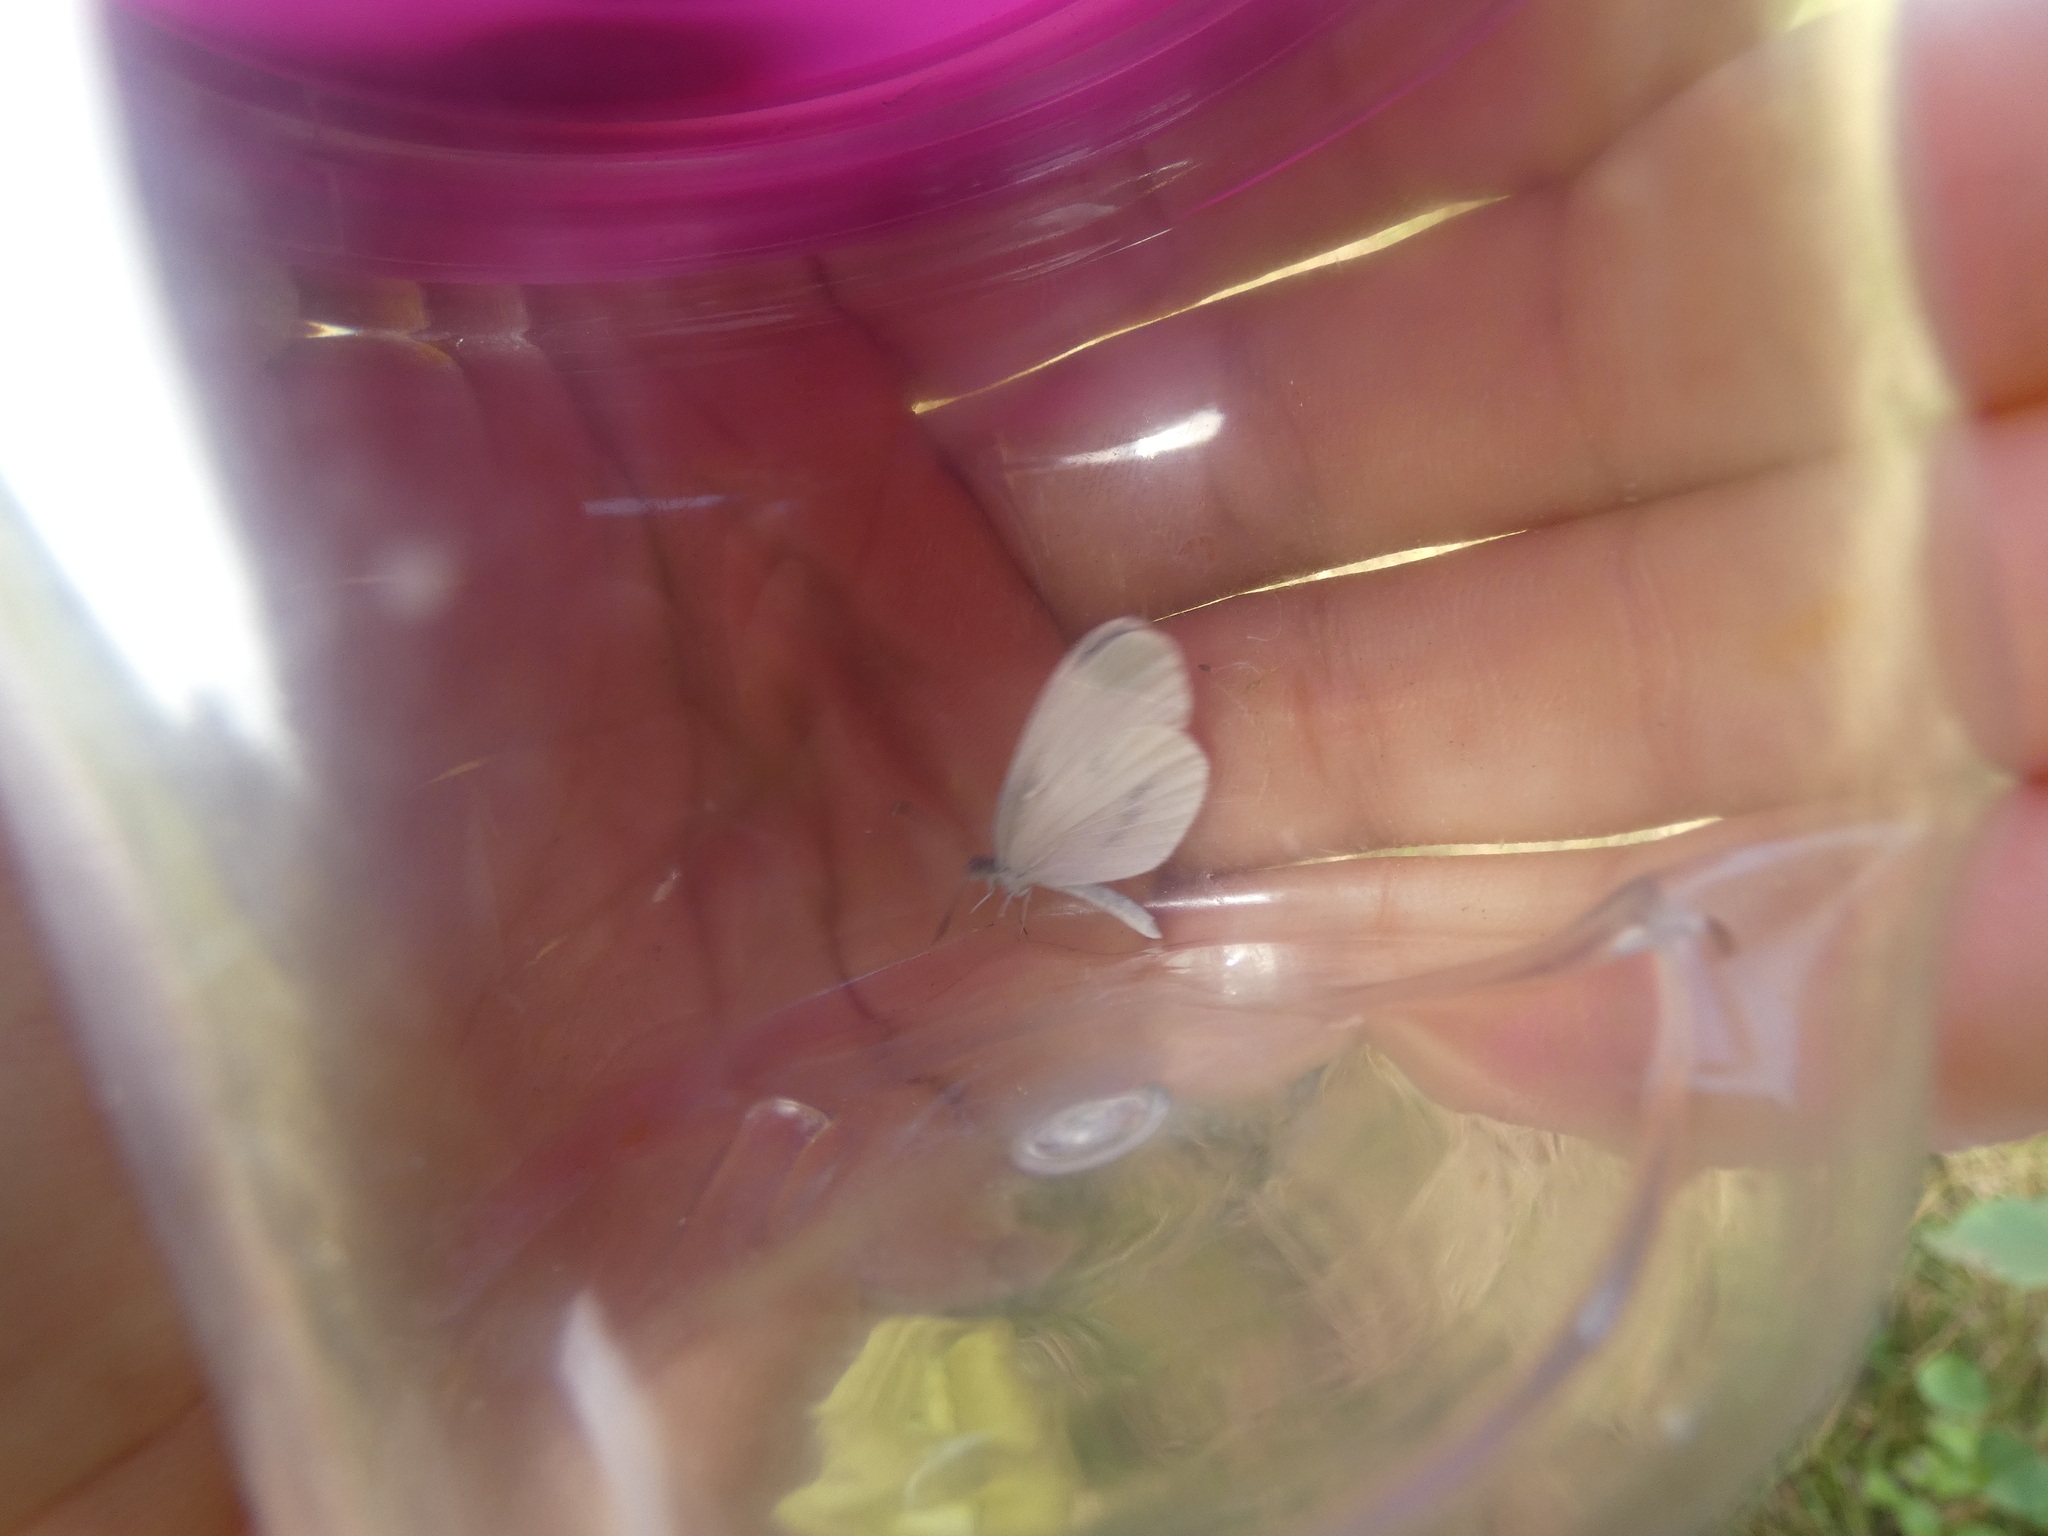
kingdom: Animalia
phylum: Arthropoda
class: Insecta
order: Lepidoptera
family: Pieridae
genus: Leptidea
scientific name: Leptidea
